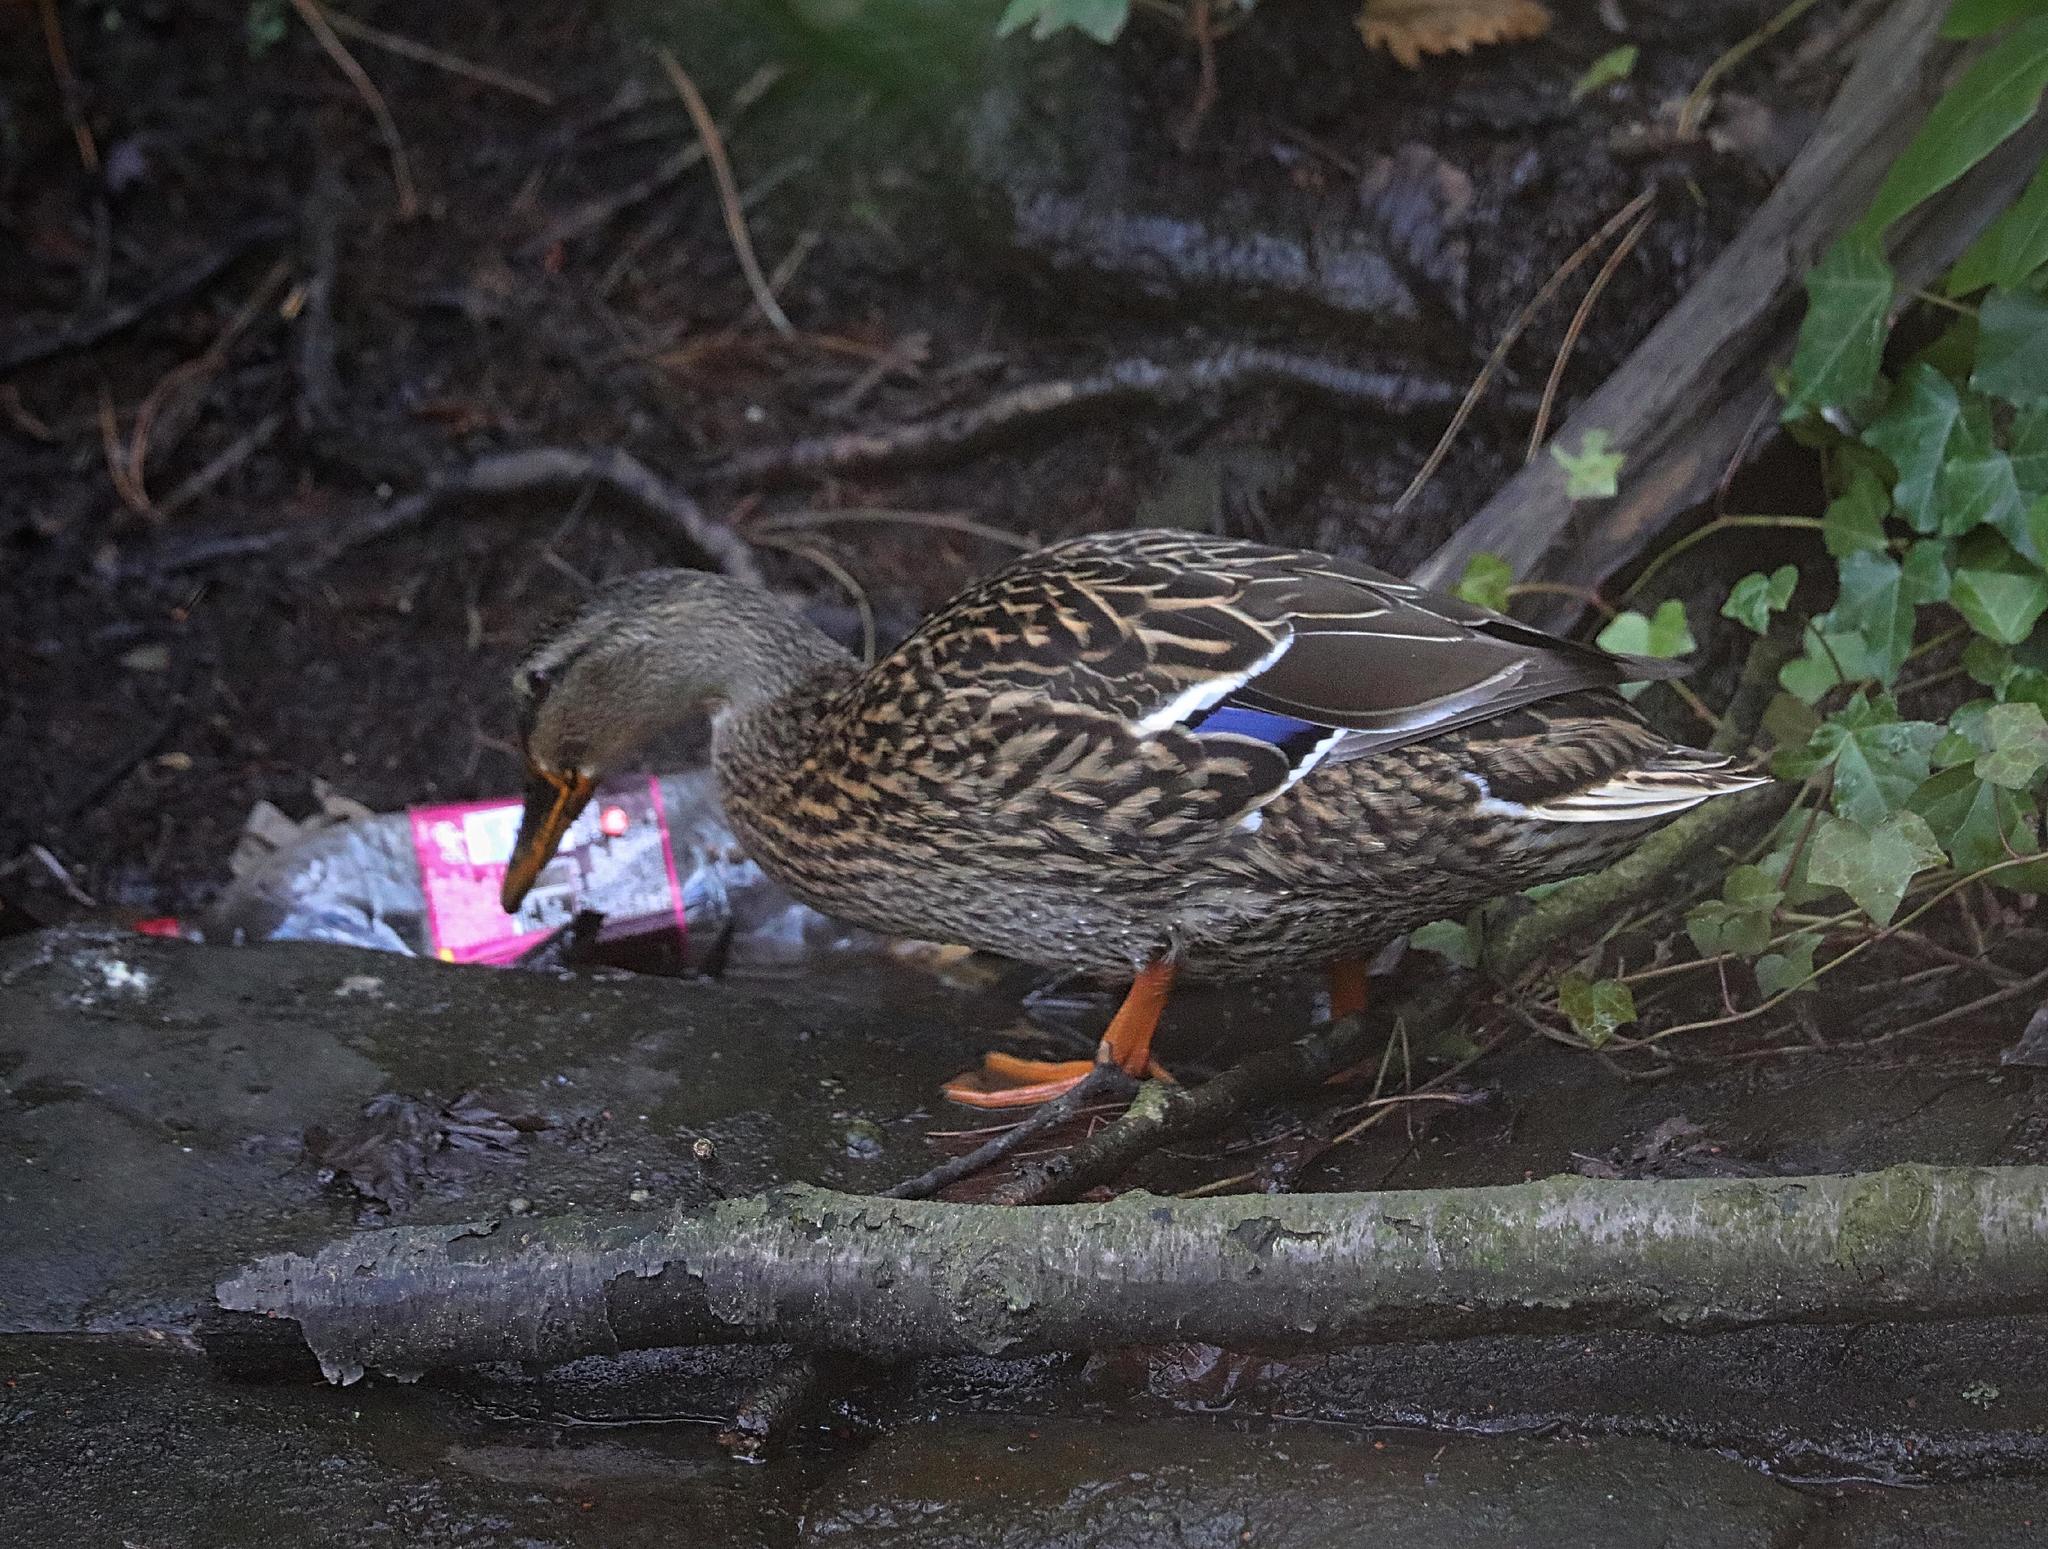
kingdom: Animalia
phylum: Chordata
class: Aves
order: Anseriformes
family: Anatidae
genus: Anas
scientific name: Anas platyrhynchos
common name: Mallard
